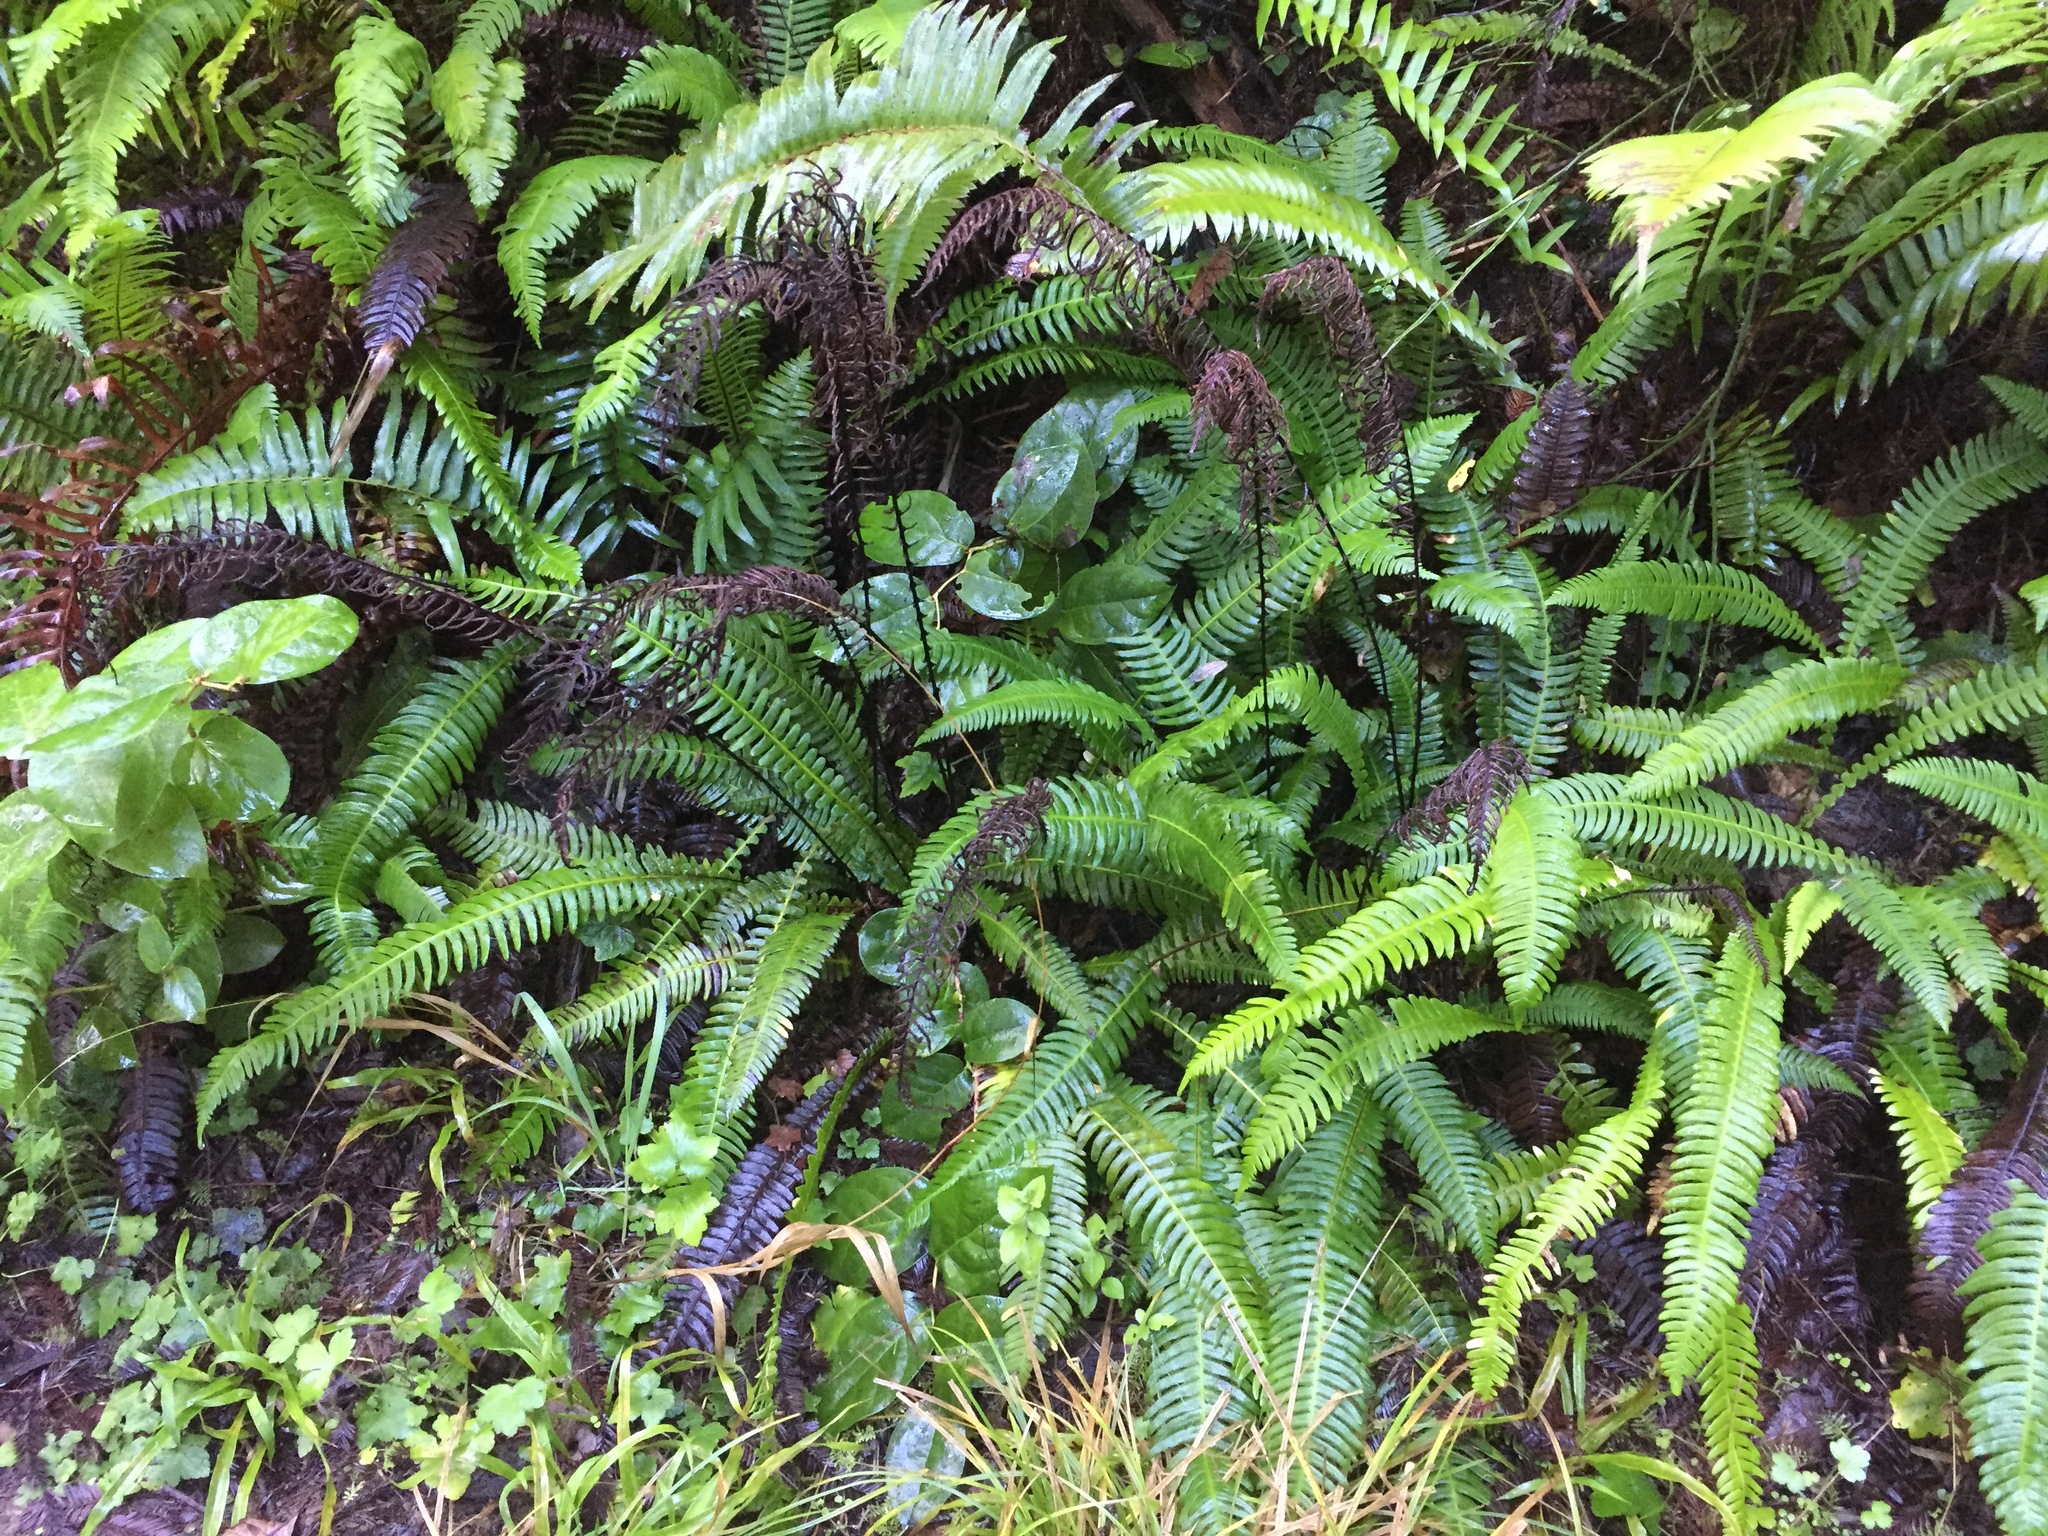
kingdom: Plantae
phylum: Tracheophyta
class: Polypodiopsida
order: Polypodiales
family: Blechnaceae
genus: Struthiopteris
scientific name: Struthiopteris spicant
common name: Deer fern
